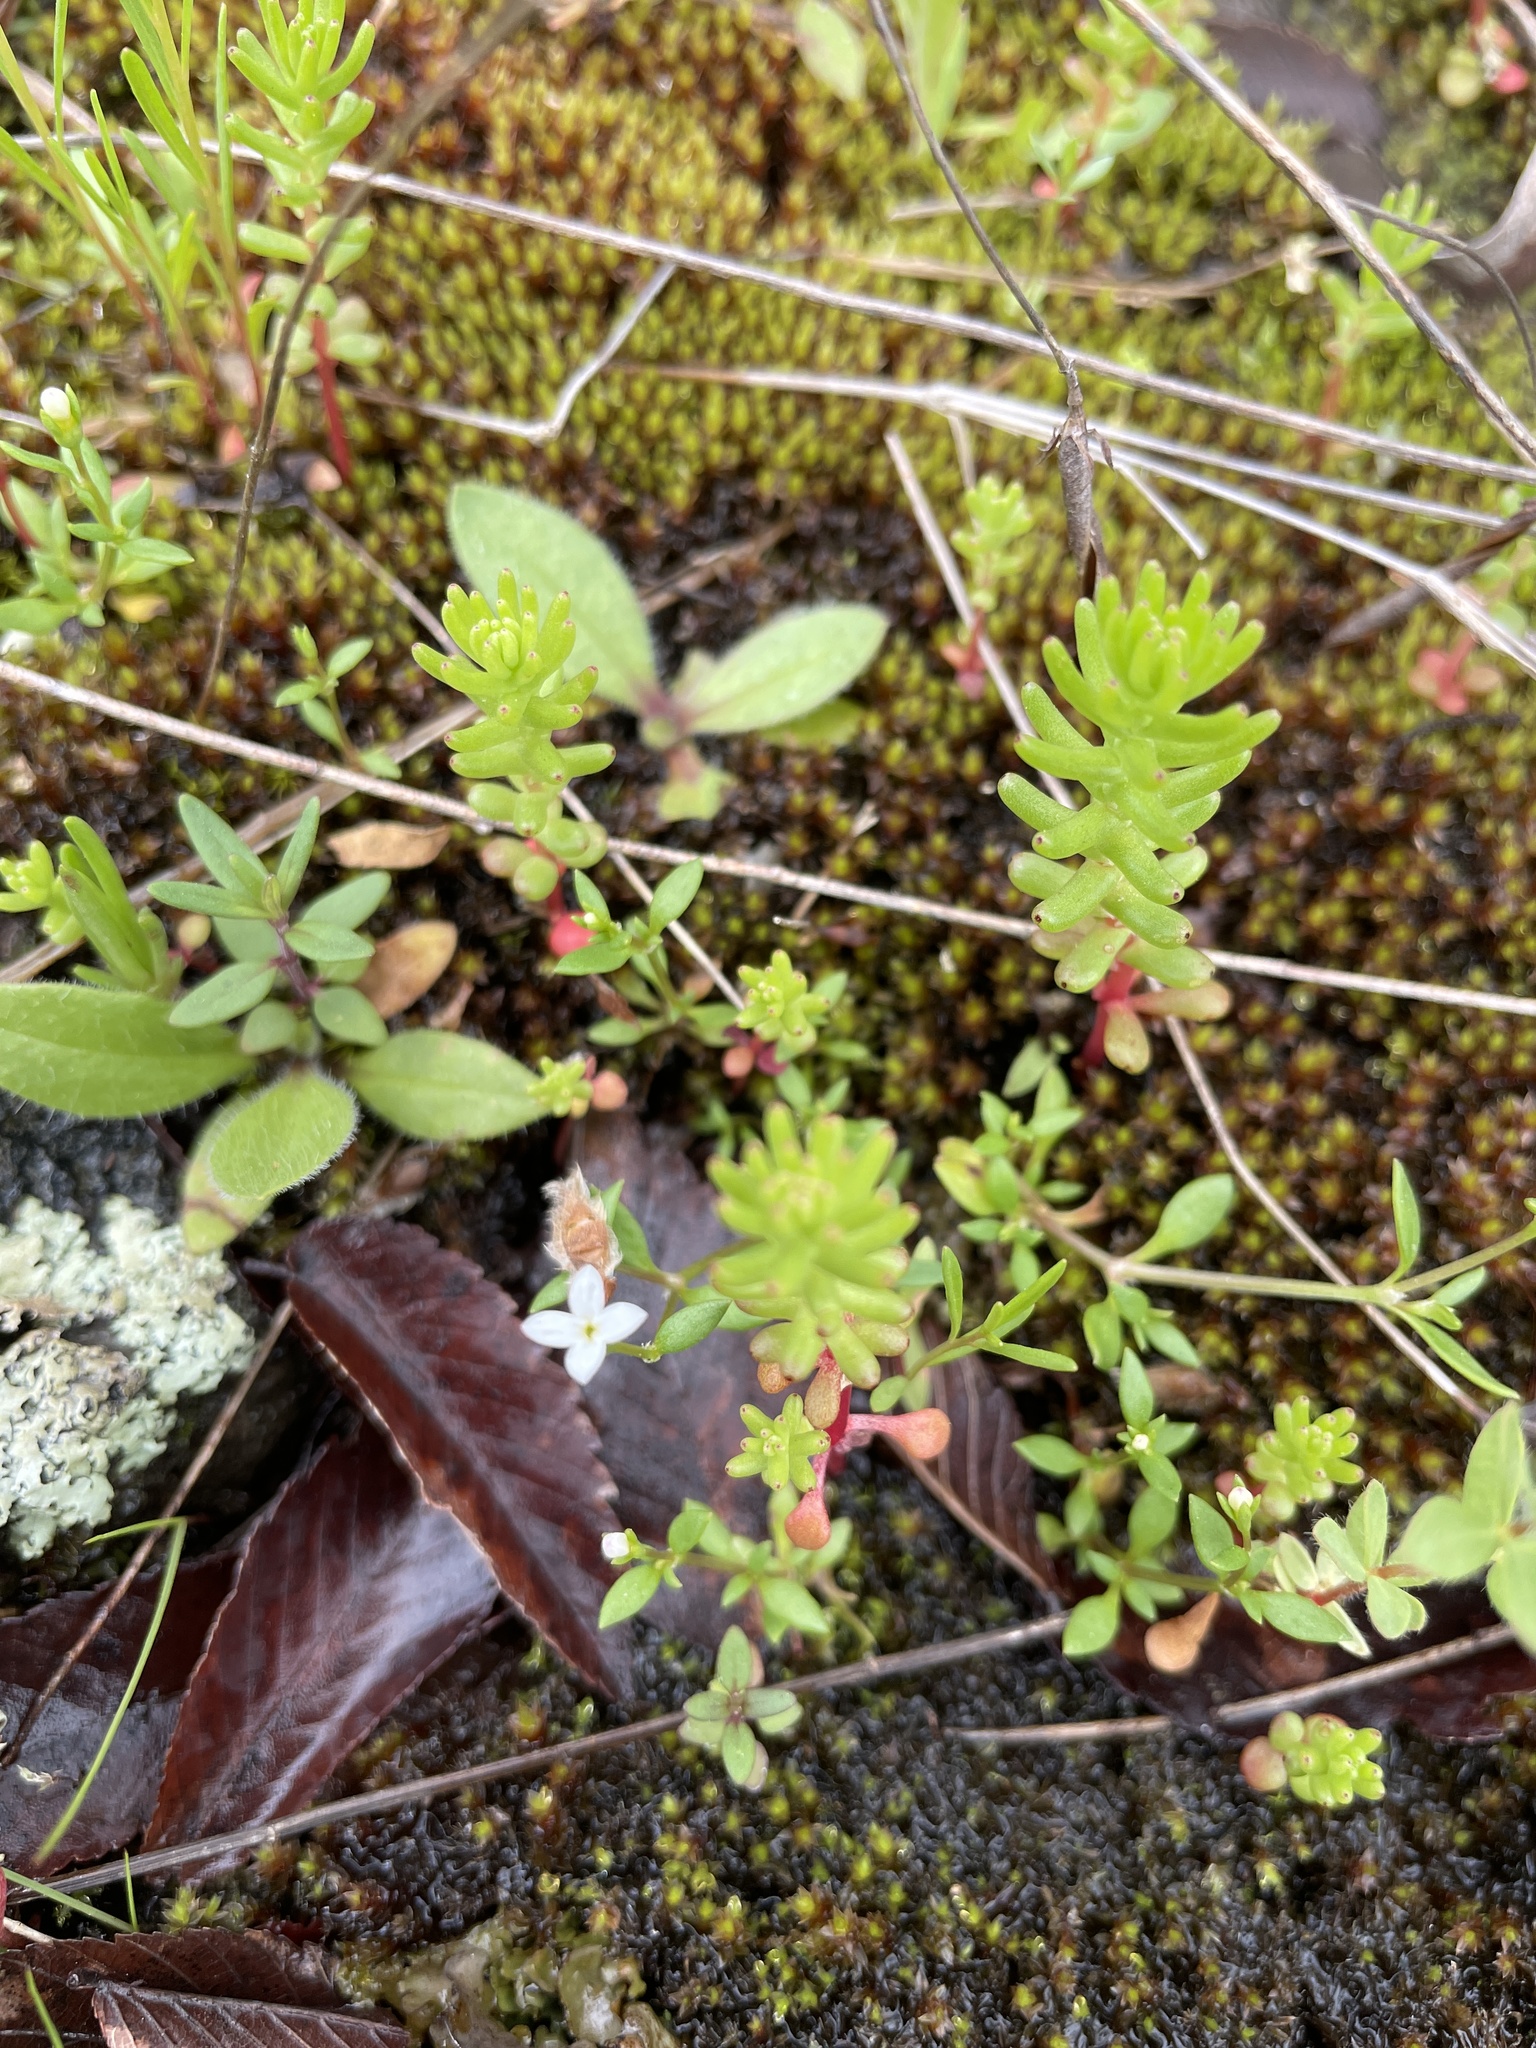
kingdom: Plantae
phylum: Tracheophyta
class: Magnoliopsida
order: Saxifragales
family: Crassulaceae
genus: Sedum
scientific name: Sedum pulchellum
